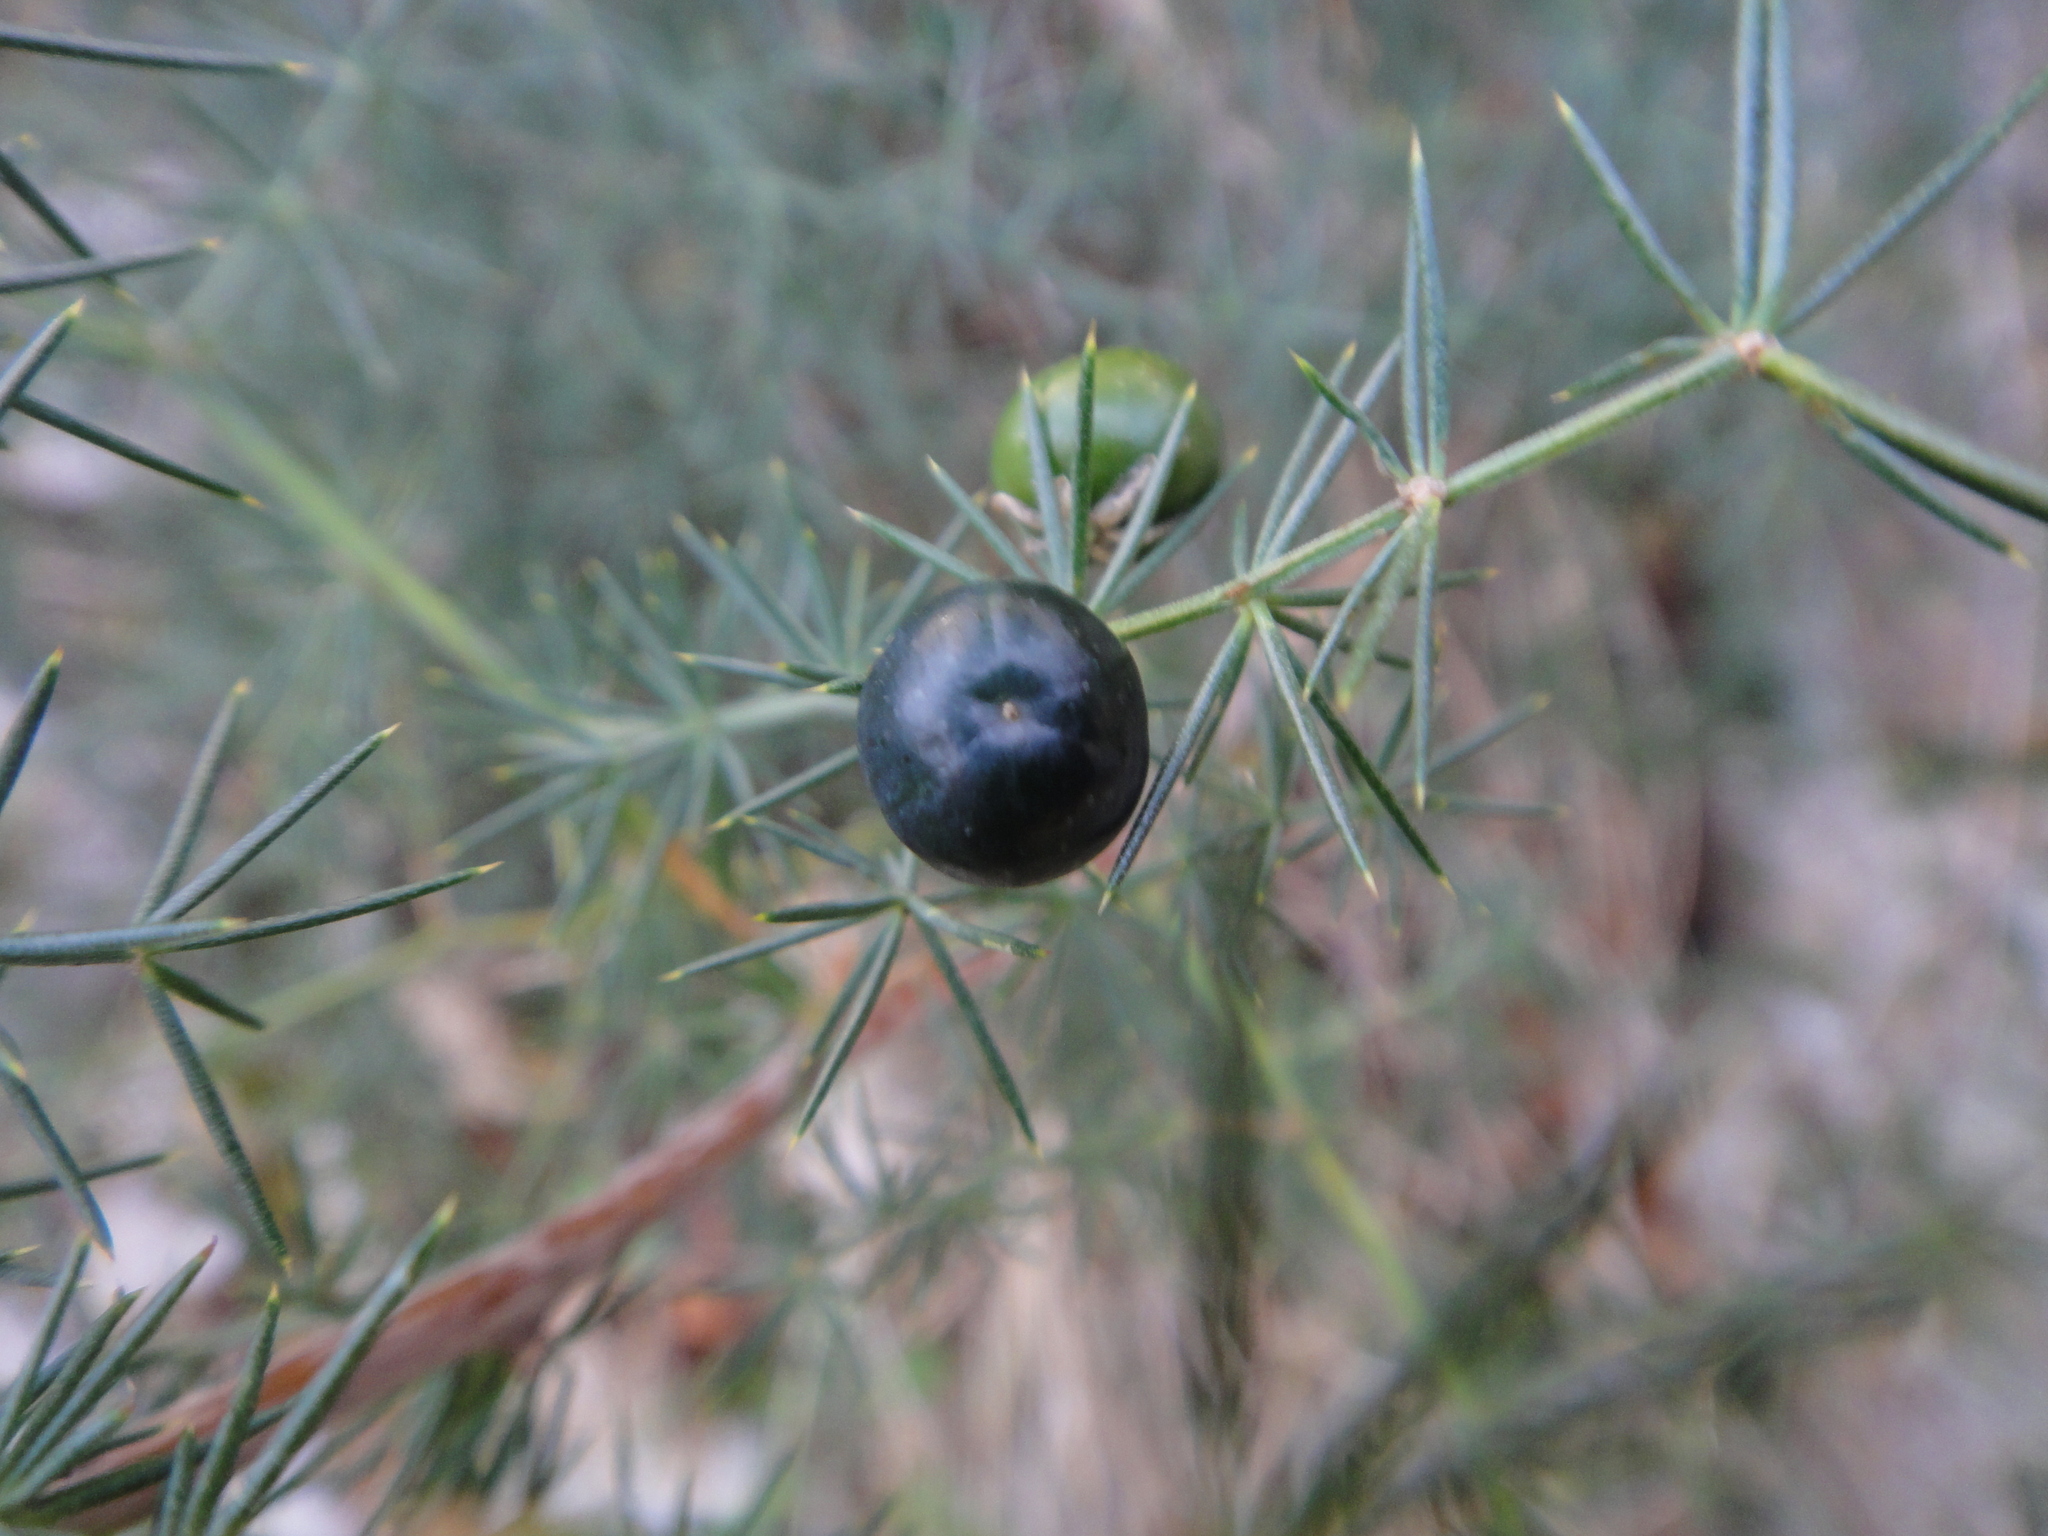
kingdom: Plantae
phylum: Tracheophyta
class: Liliopsida
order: Asparagales
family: Asparagaceae
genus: Asparagus
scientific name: Asparagus acutifolius
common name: Wild asparagus
